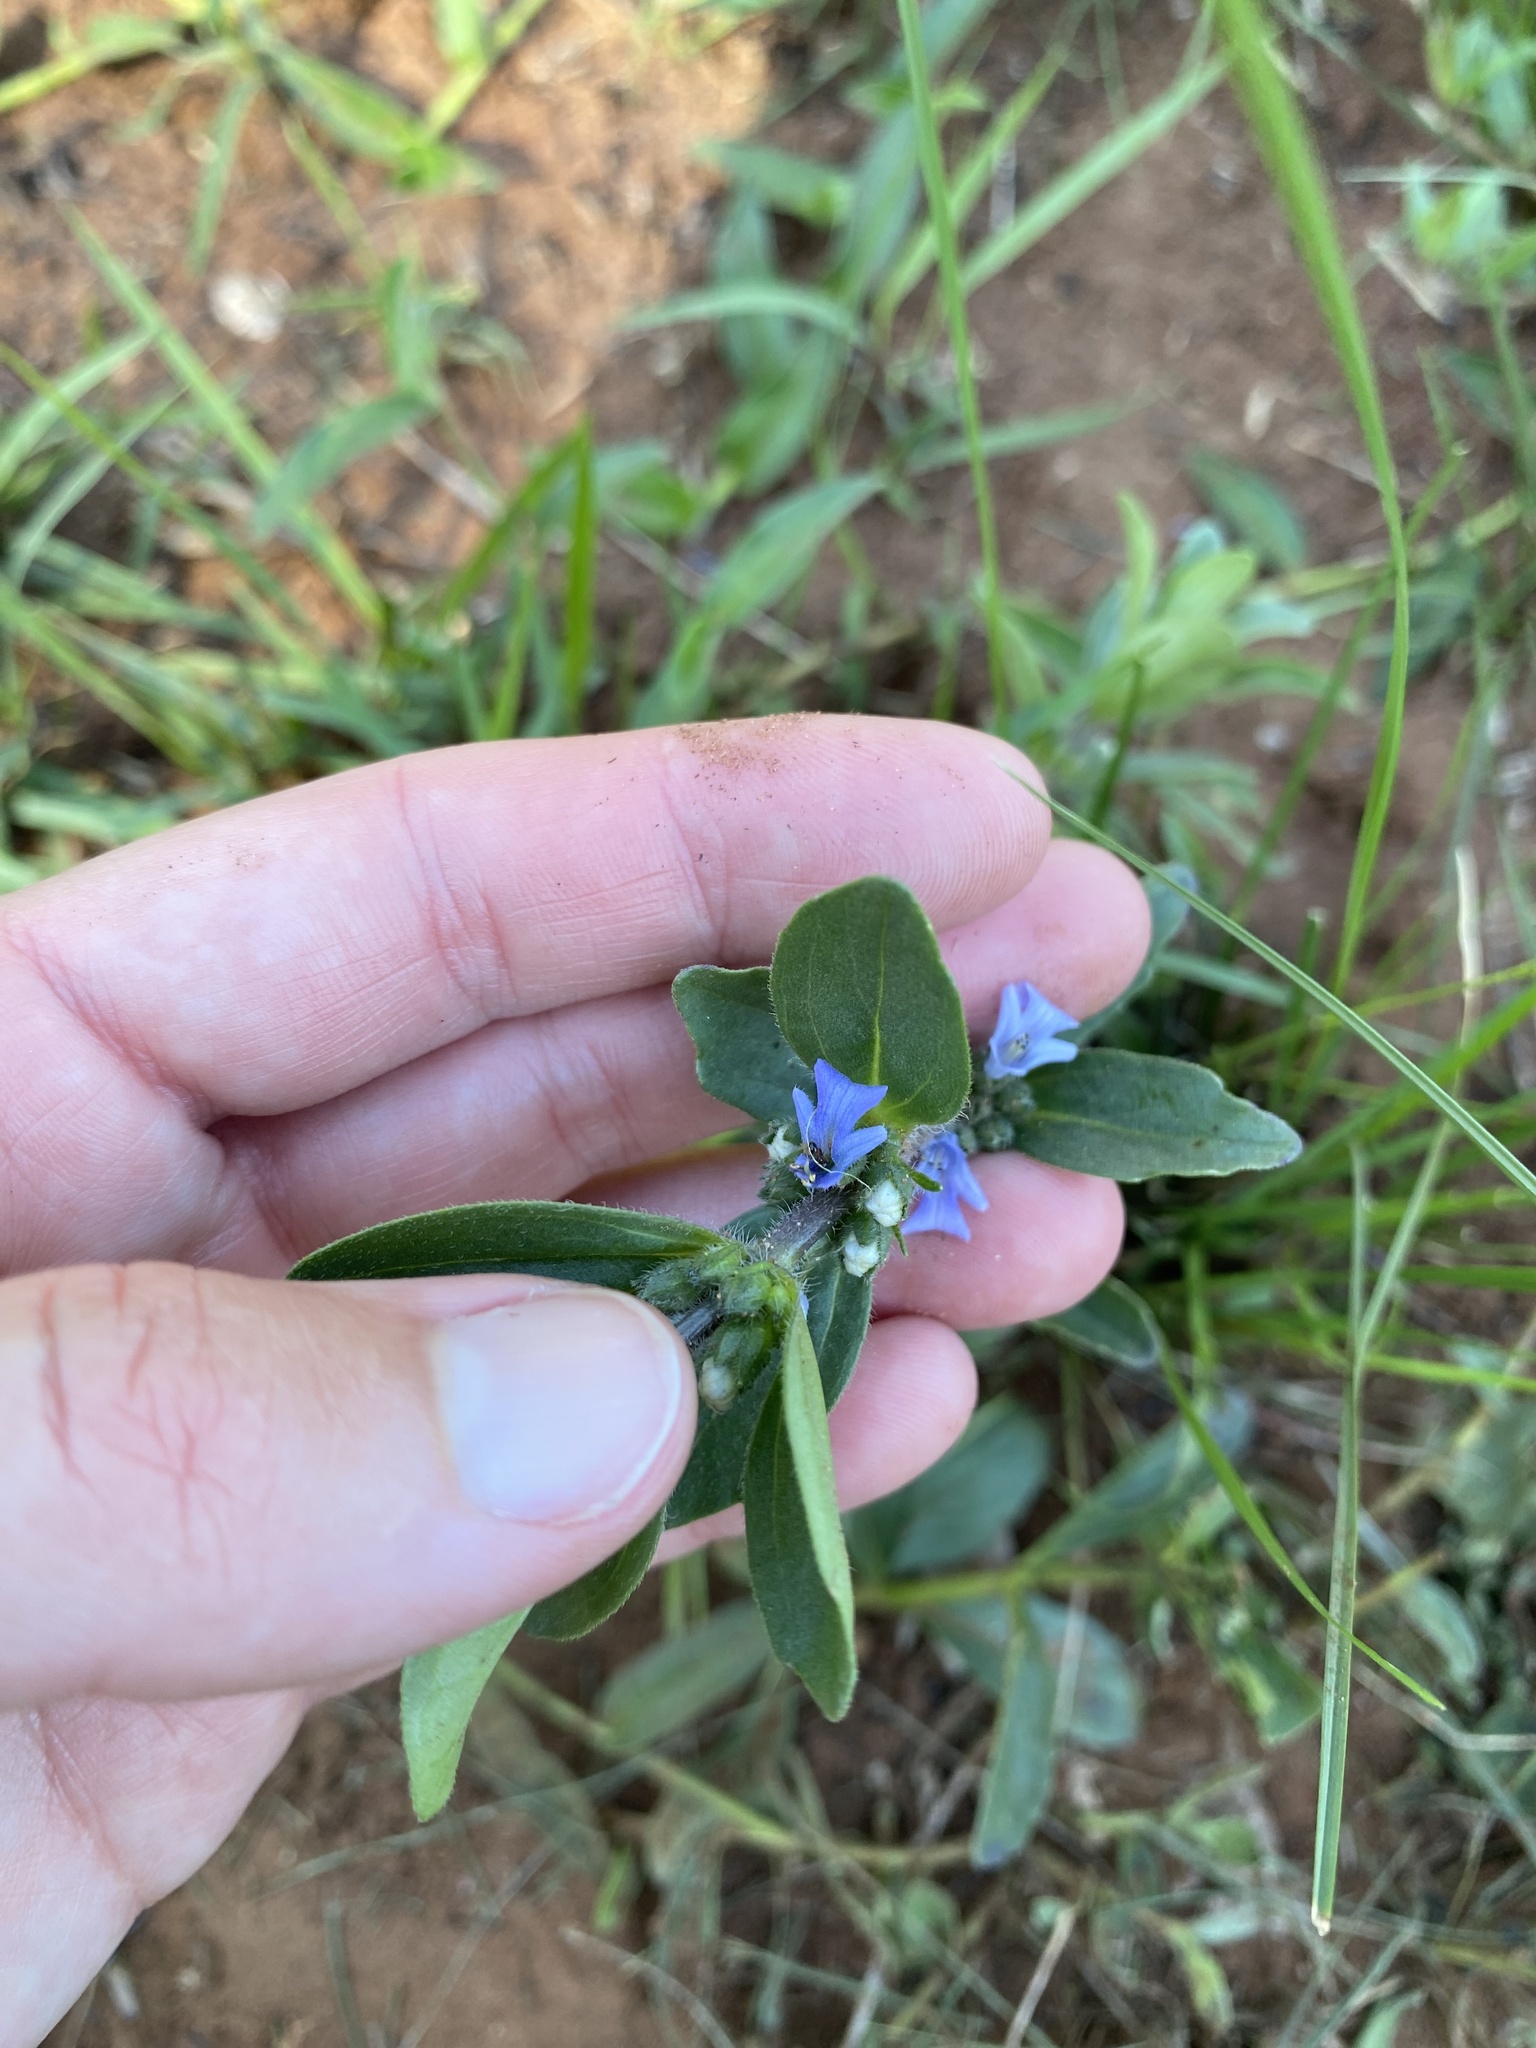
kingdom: Plantae
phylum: Tracheophyta
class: Magnoliopsida
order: Lamiales
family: Lamiaceae
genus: Ajuga
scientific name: Ajuga ophrydis
